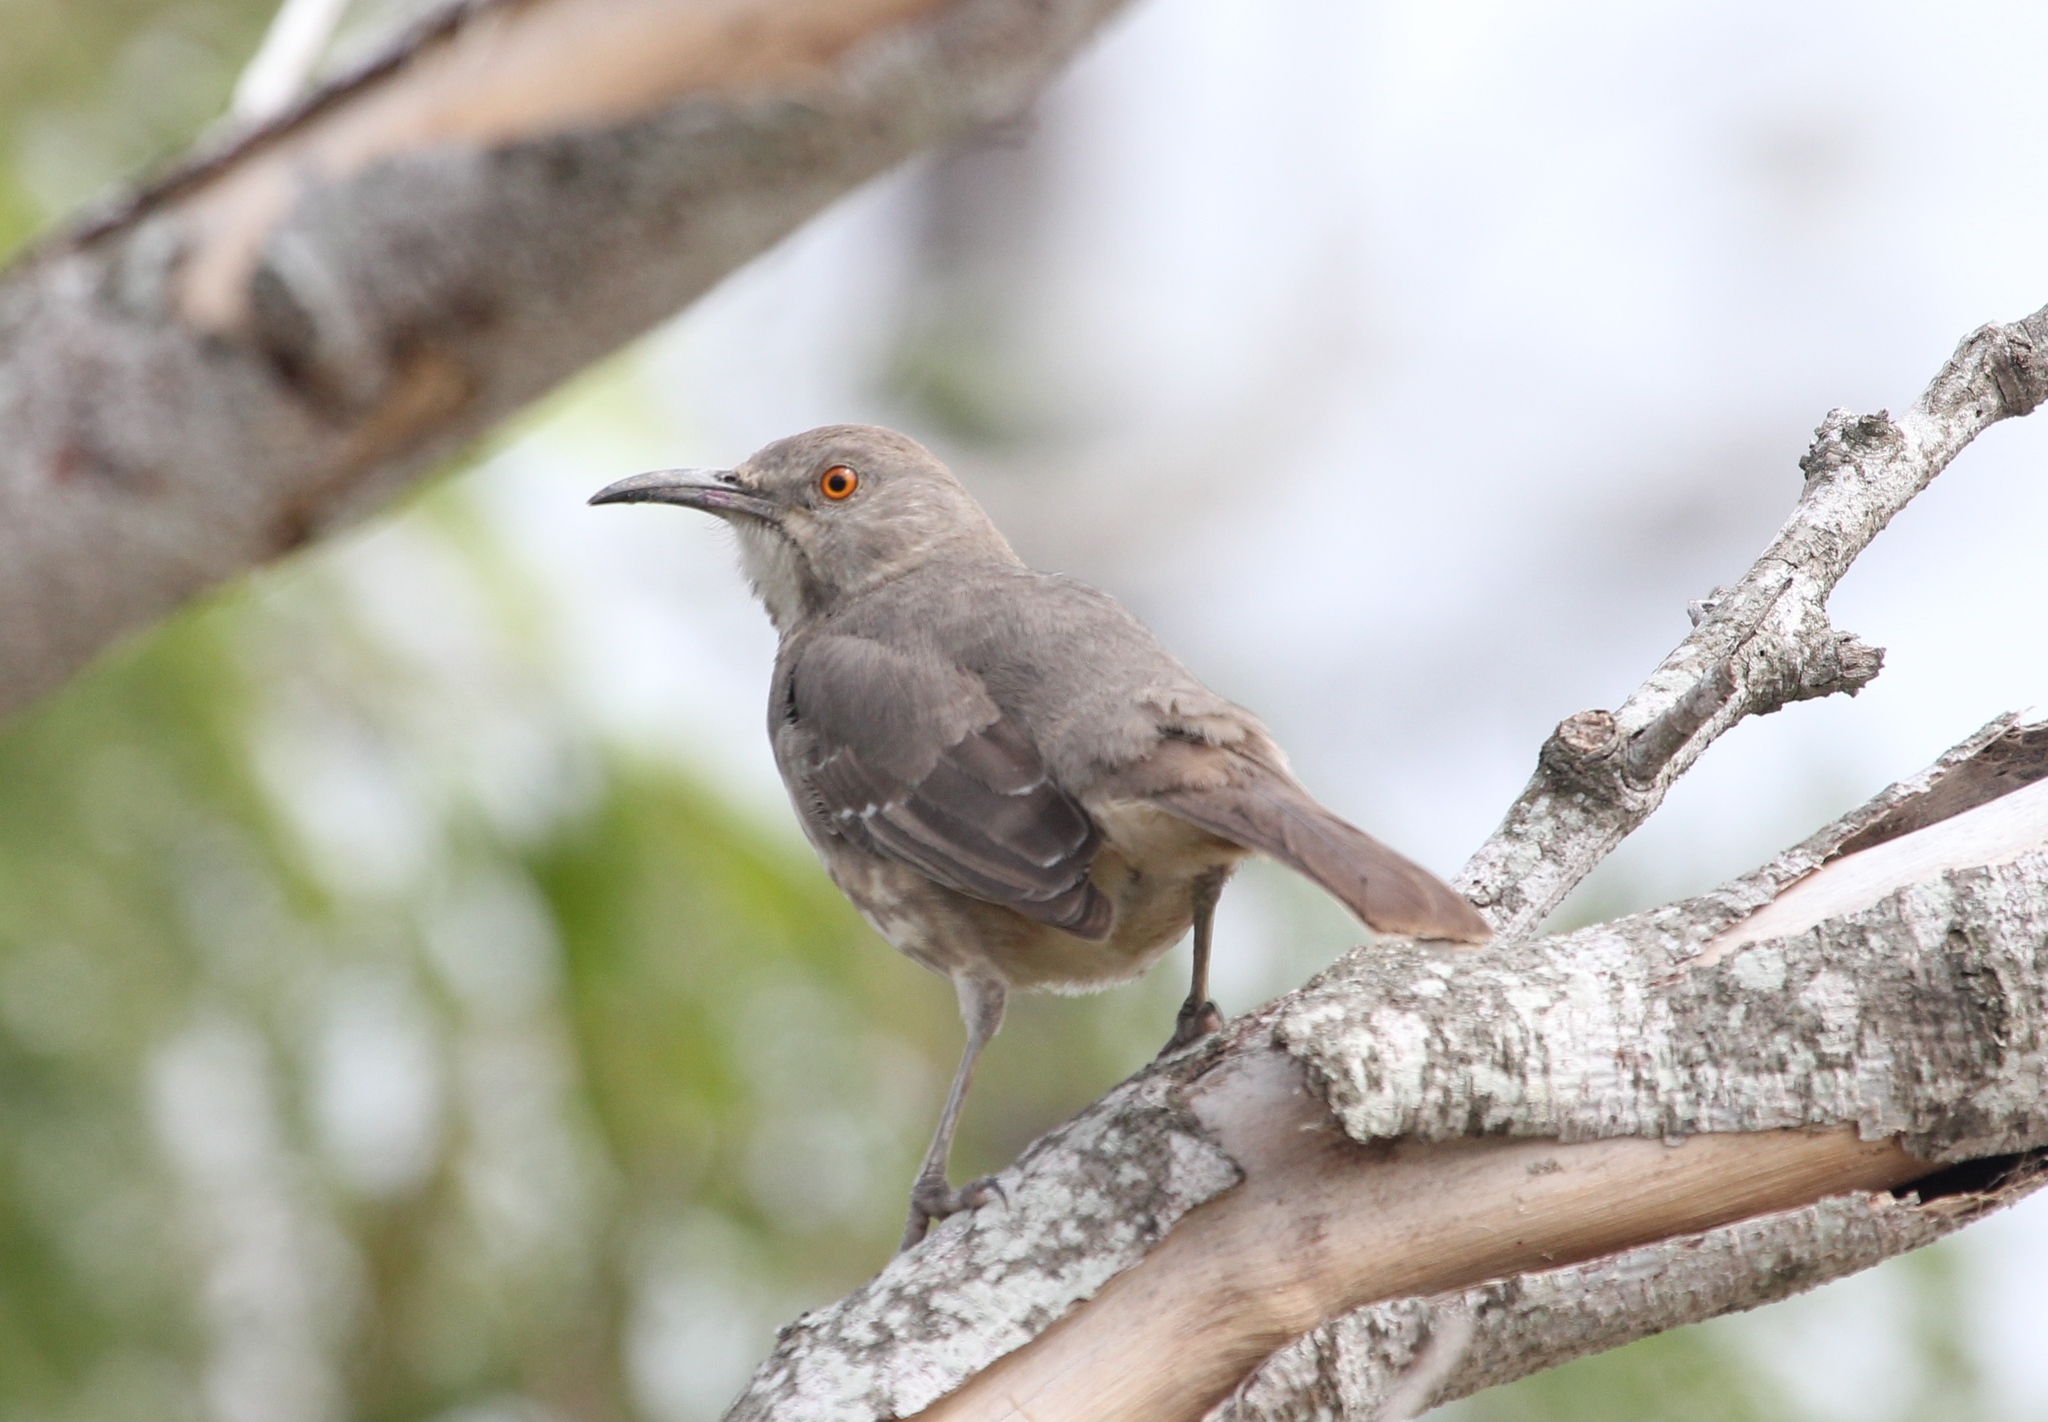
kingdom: Animalia
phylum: Chordata
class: Aves
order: Passeriformes
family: Mimidae
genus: Toxostoma
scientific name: Toxostoma curvirostre
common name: Curve-billed thrasher
